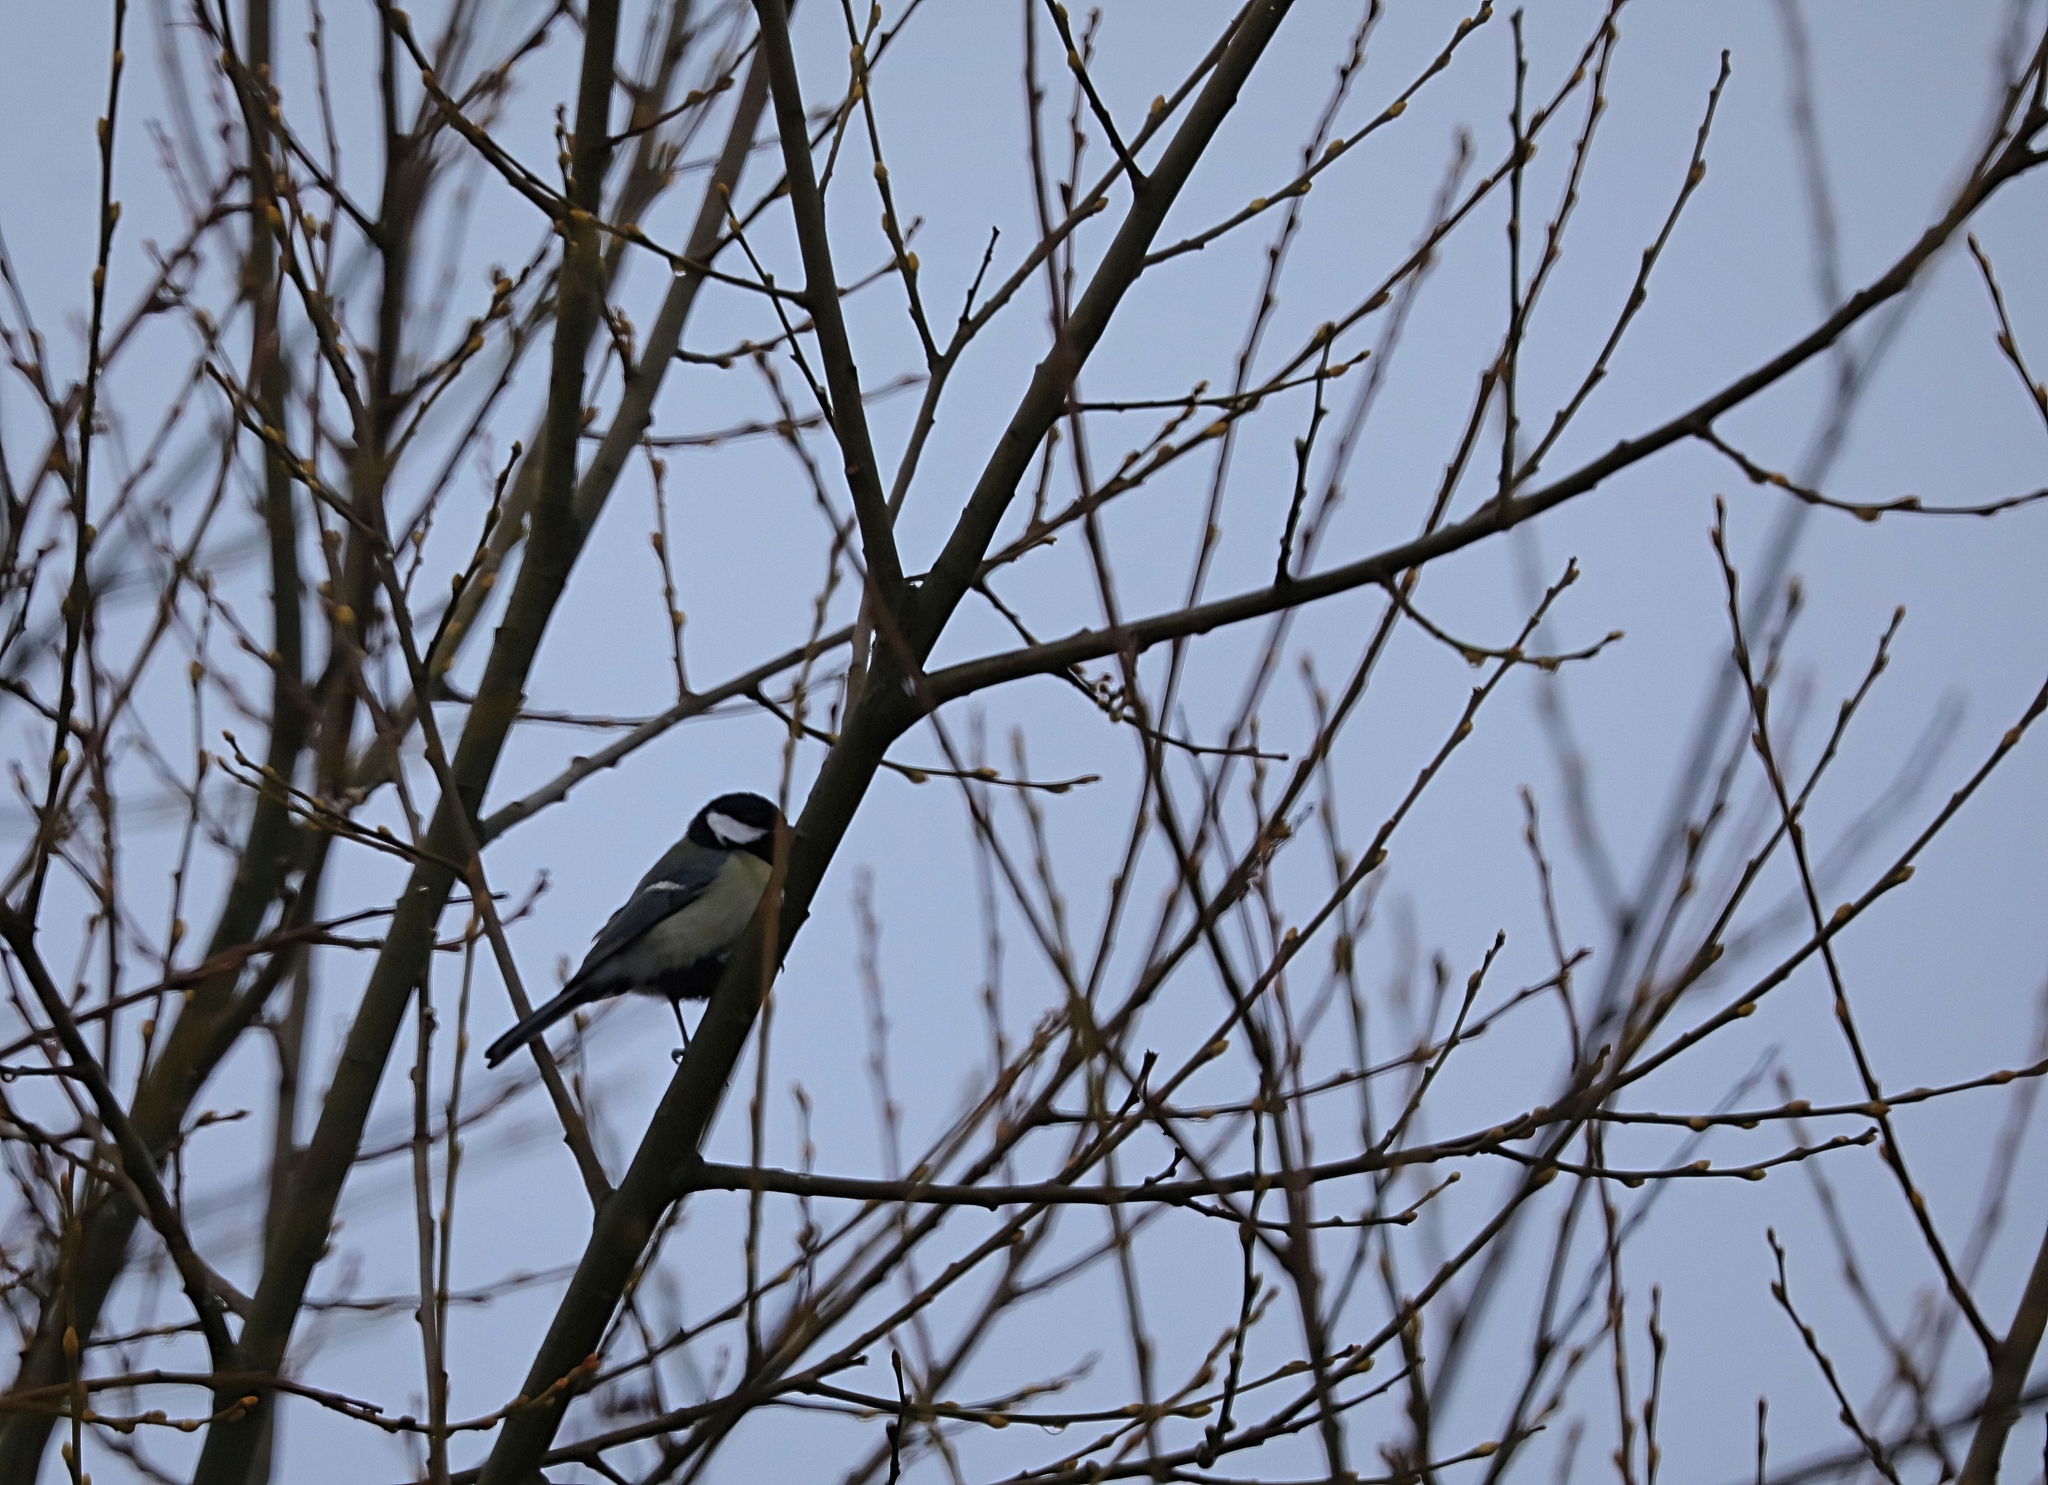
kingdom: Animalia
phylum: Chordata
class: Aves
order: Passeriformes
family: Paridae
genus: Parus
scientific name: Parus major
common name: Great tit
